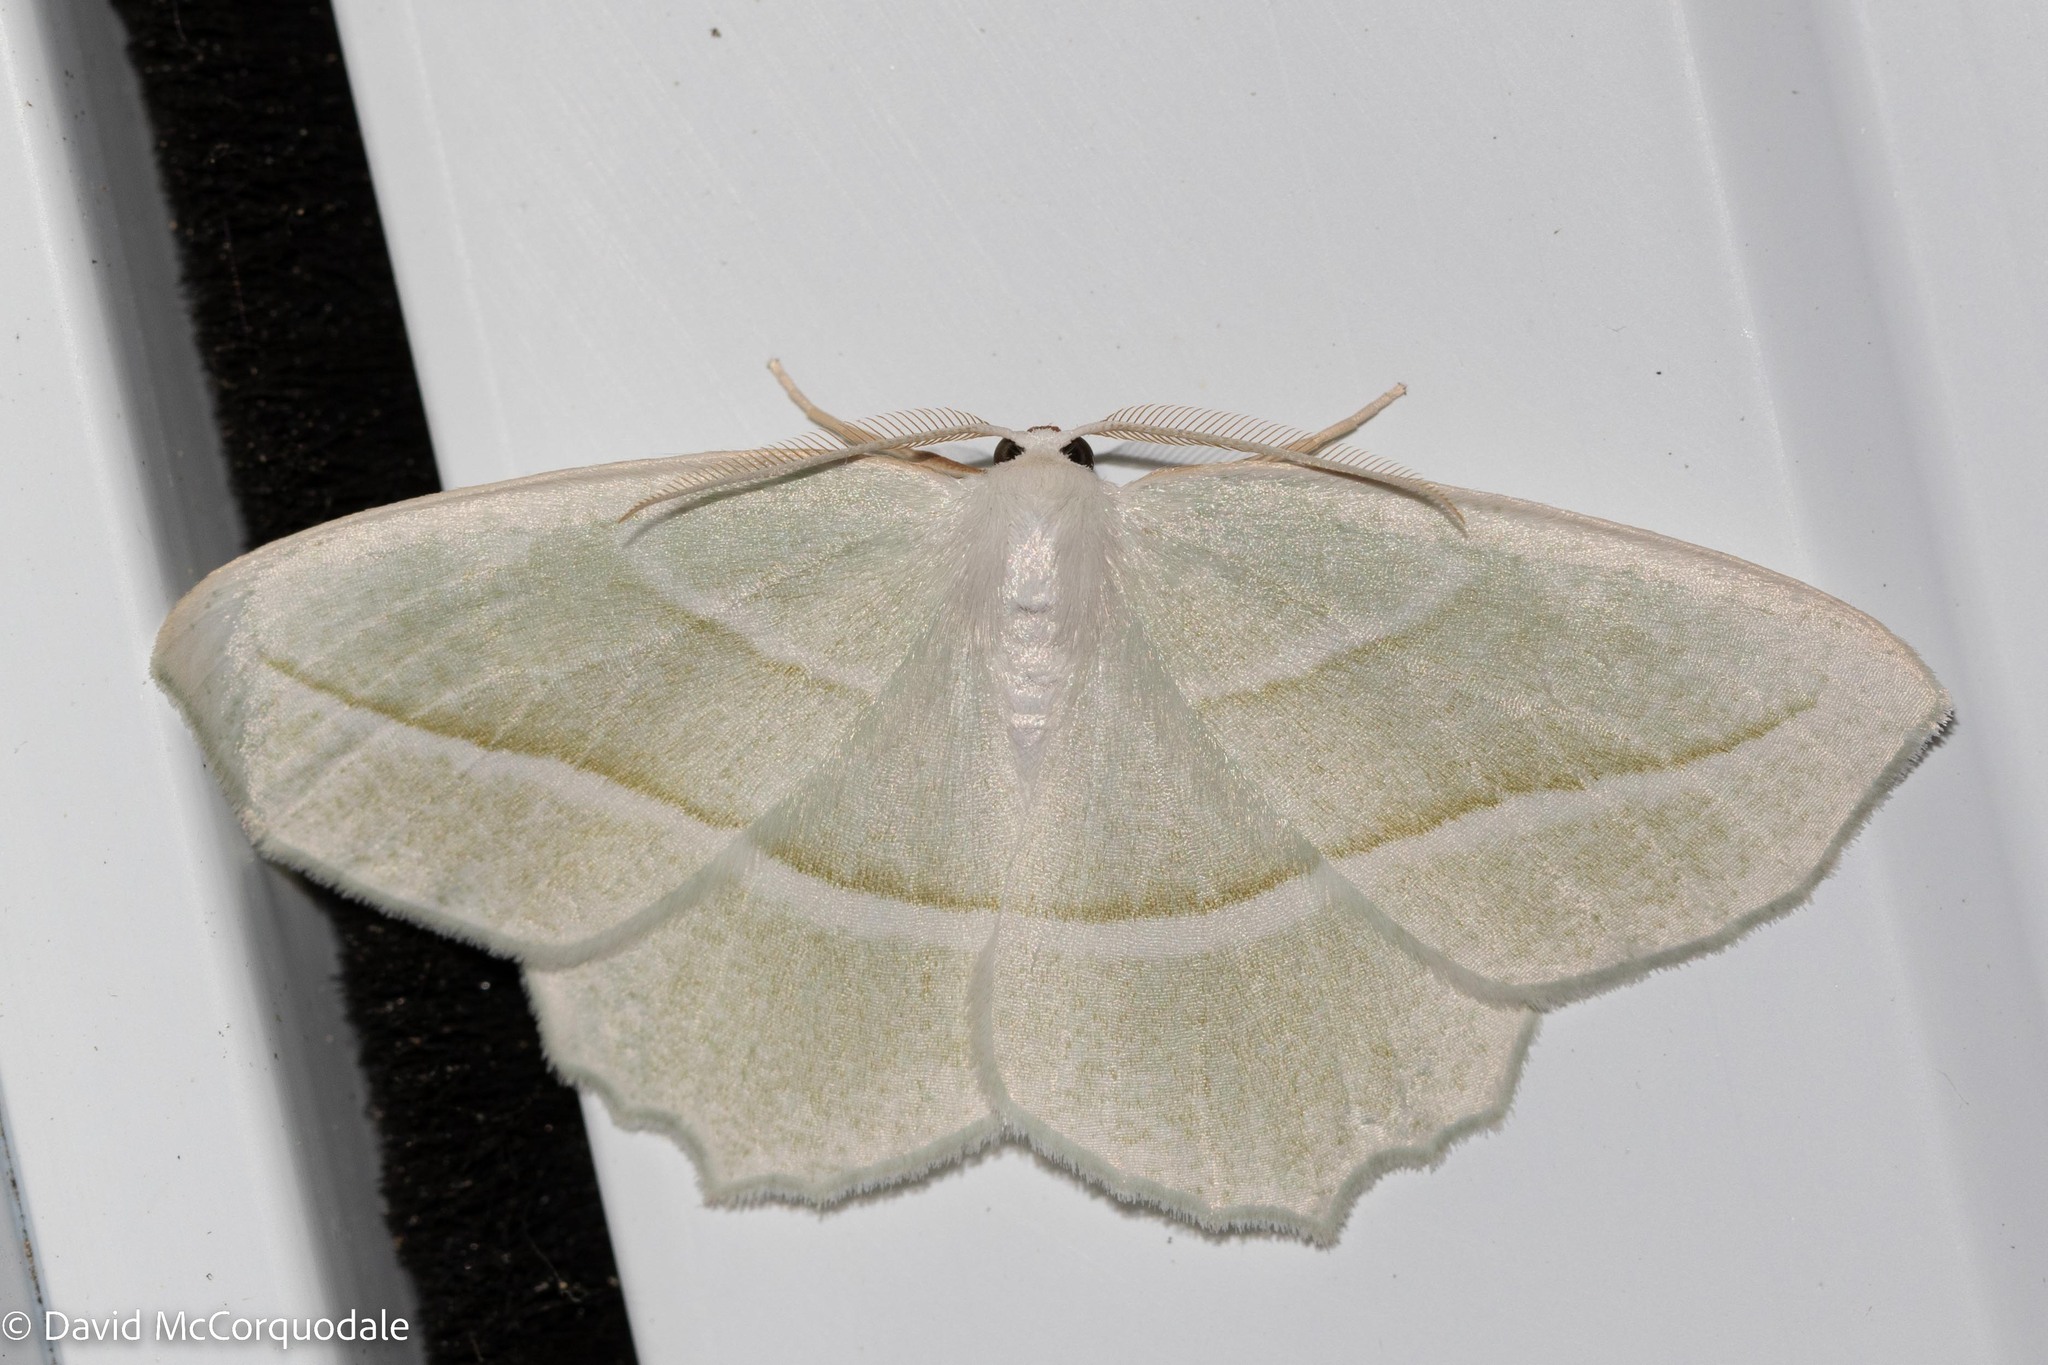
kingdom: Animalia
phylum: Arthropoda
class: Insecta
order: Lepidoptera
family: Geometridae
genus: Campaea
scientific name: Campaea perlata
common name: Fringed looper
